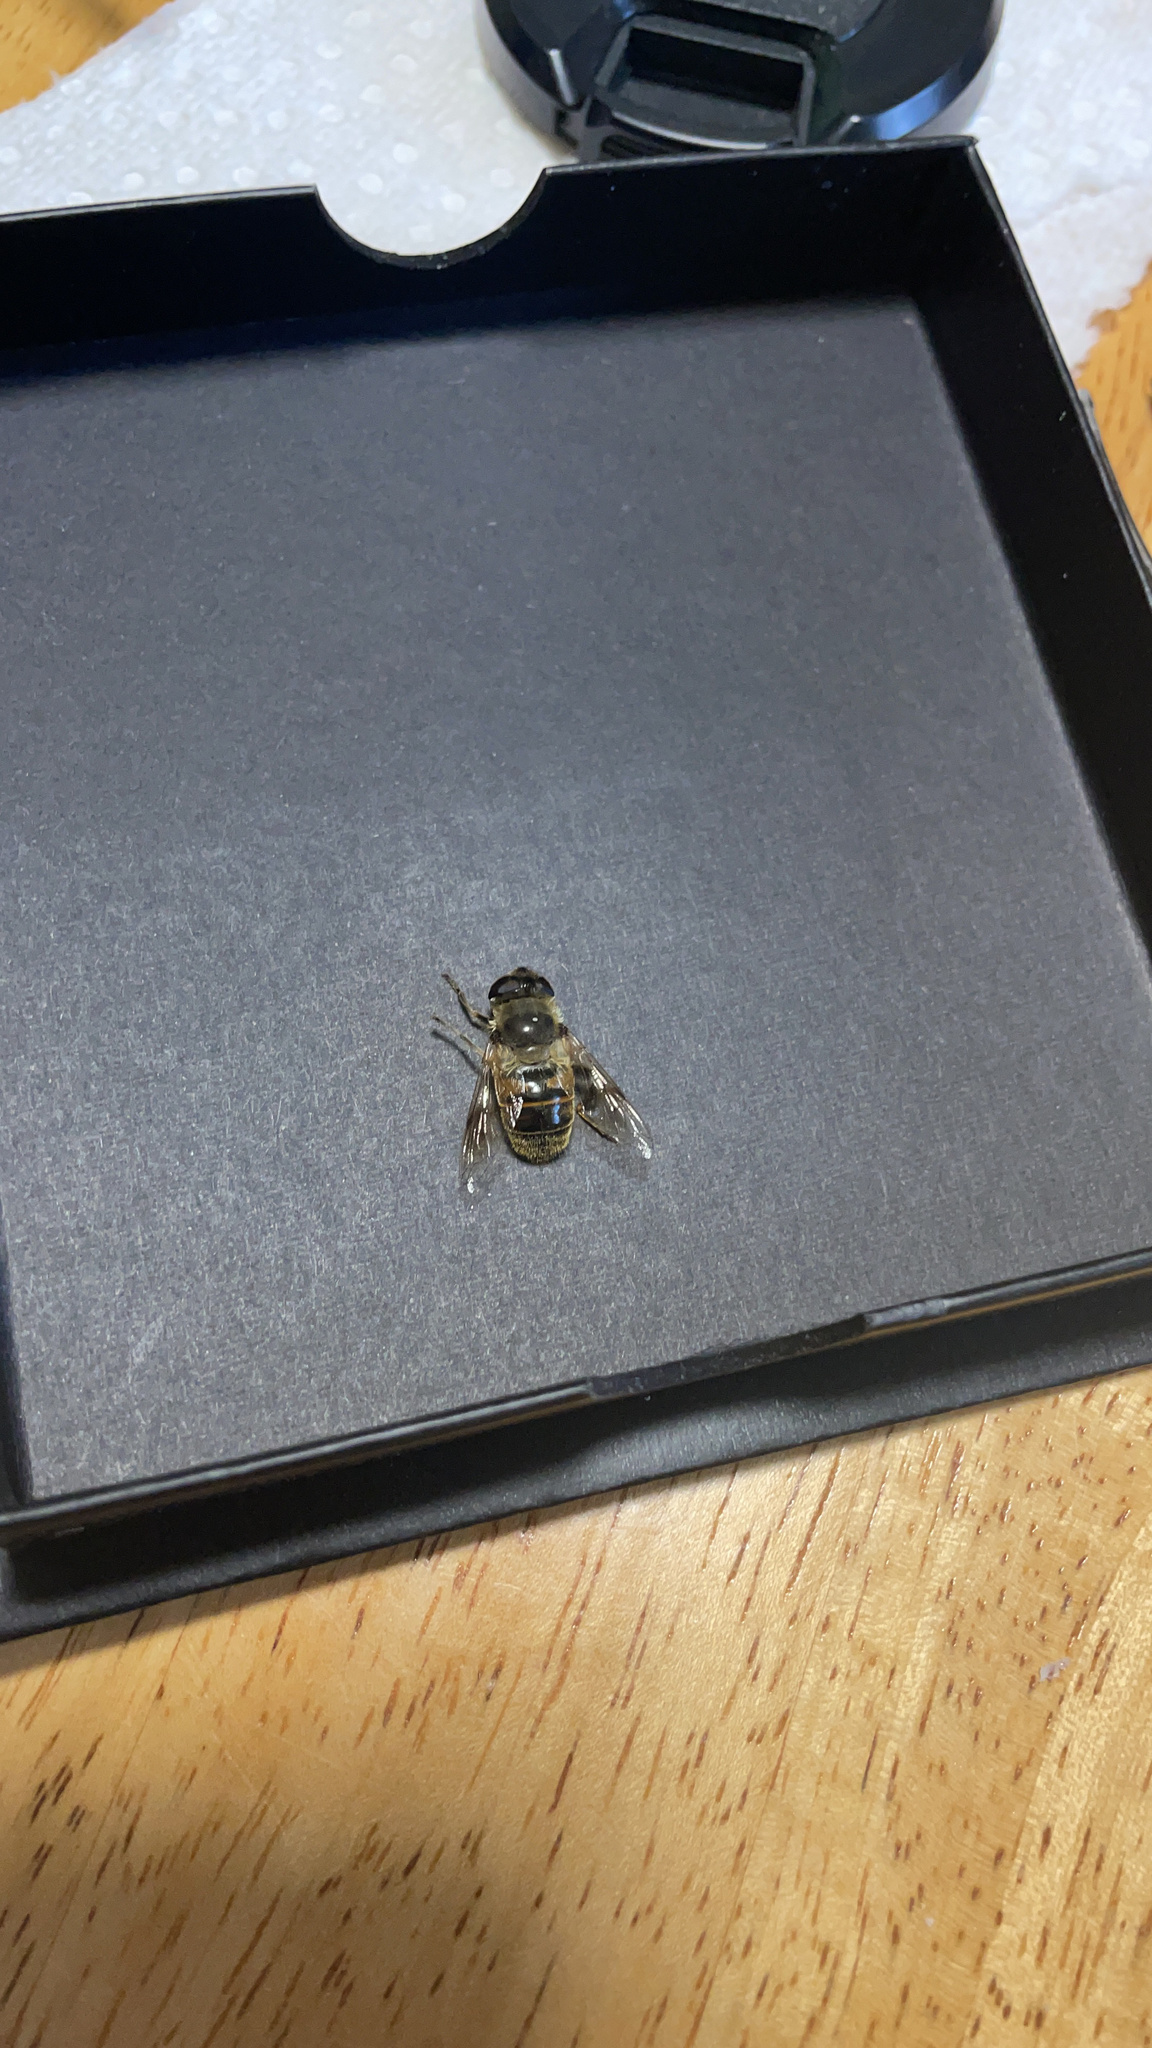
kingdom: Animalia
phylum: Arthropoda
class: Insecta
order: Diptera
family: Syrphidae
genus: Eristalis
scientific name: Eristalis tenax
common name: Drone fly
